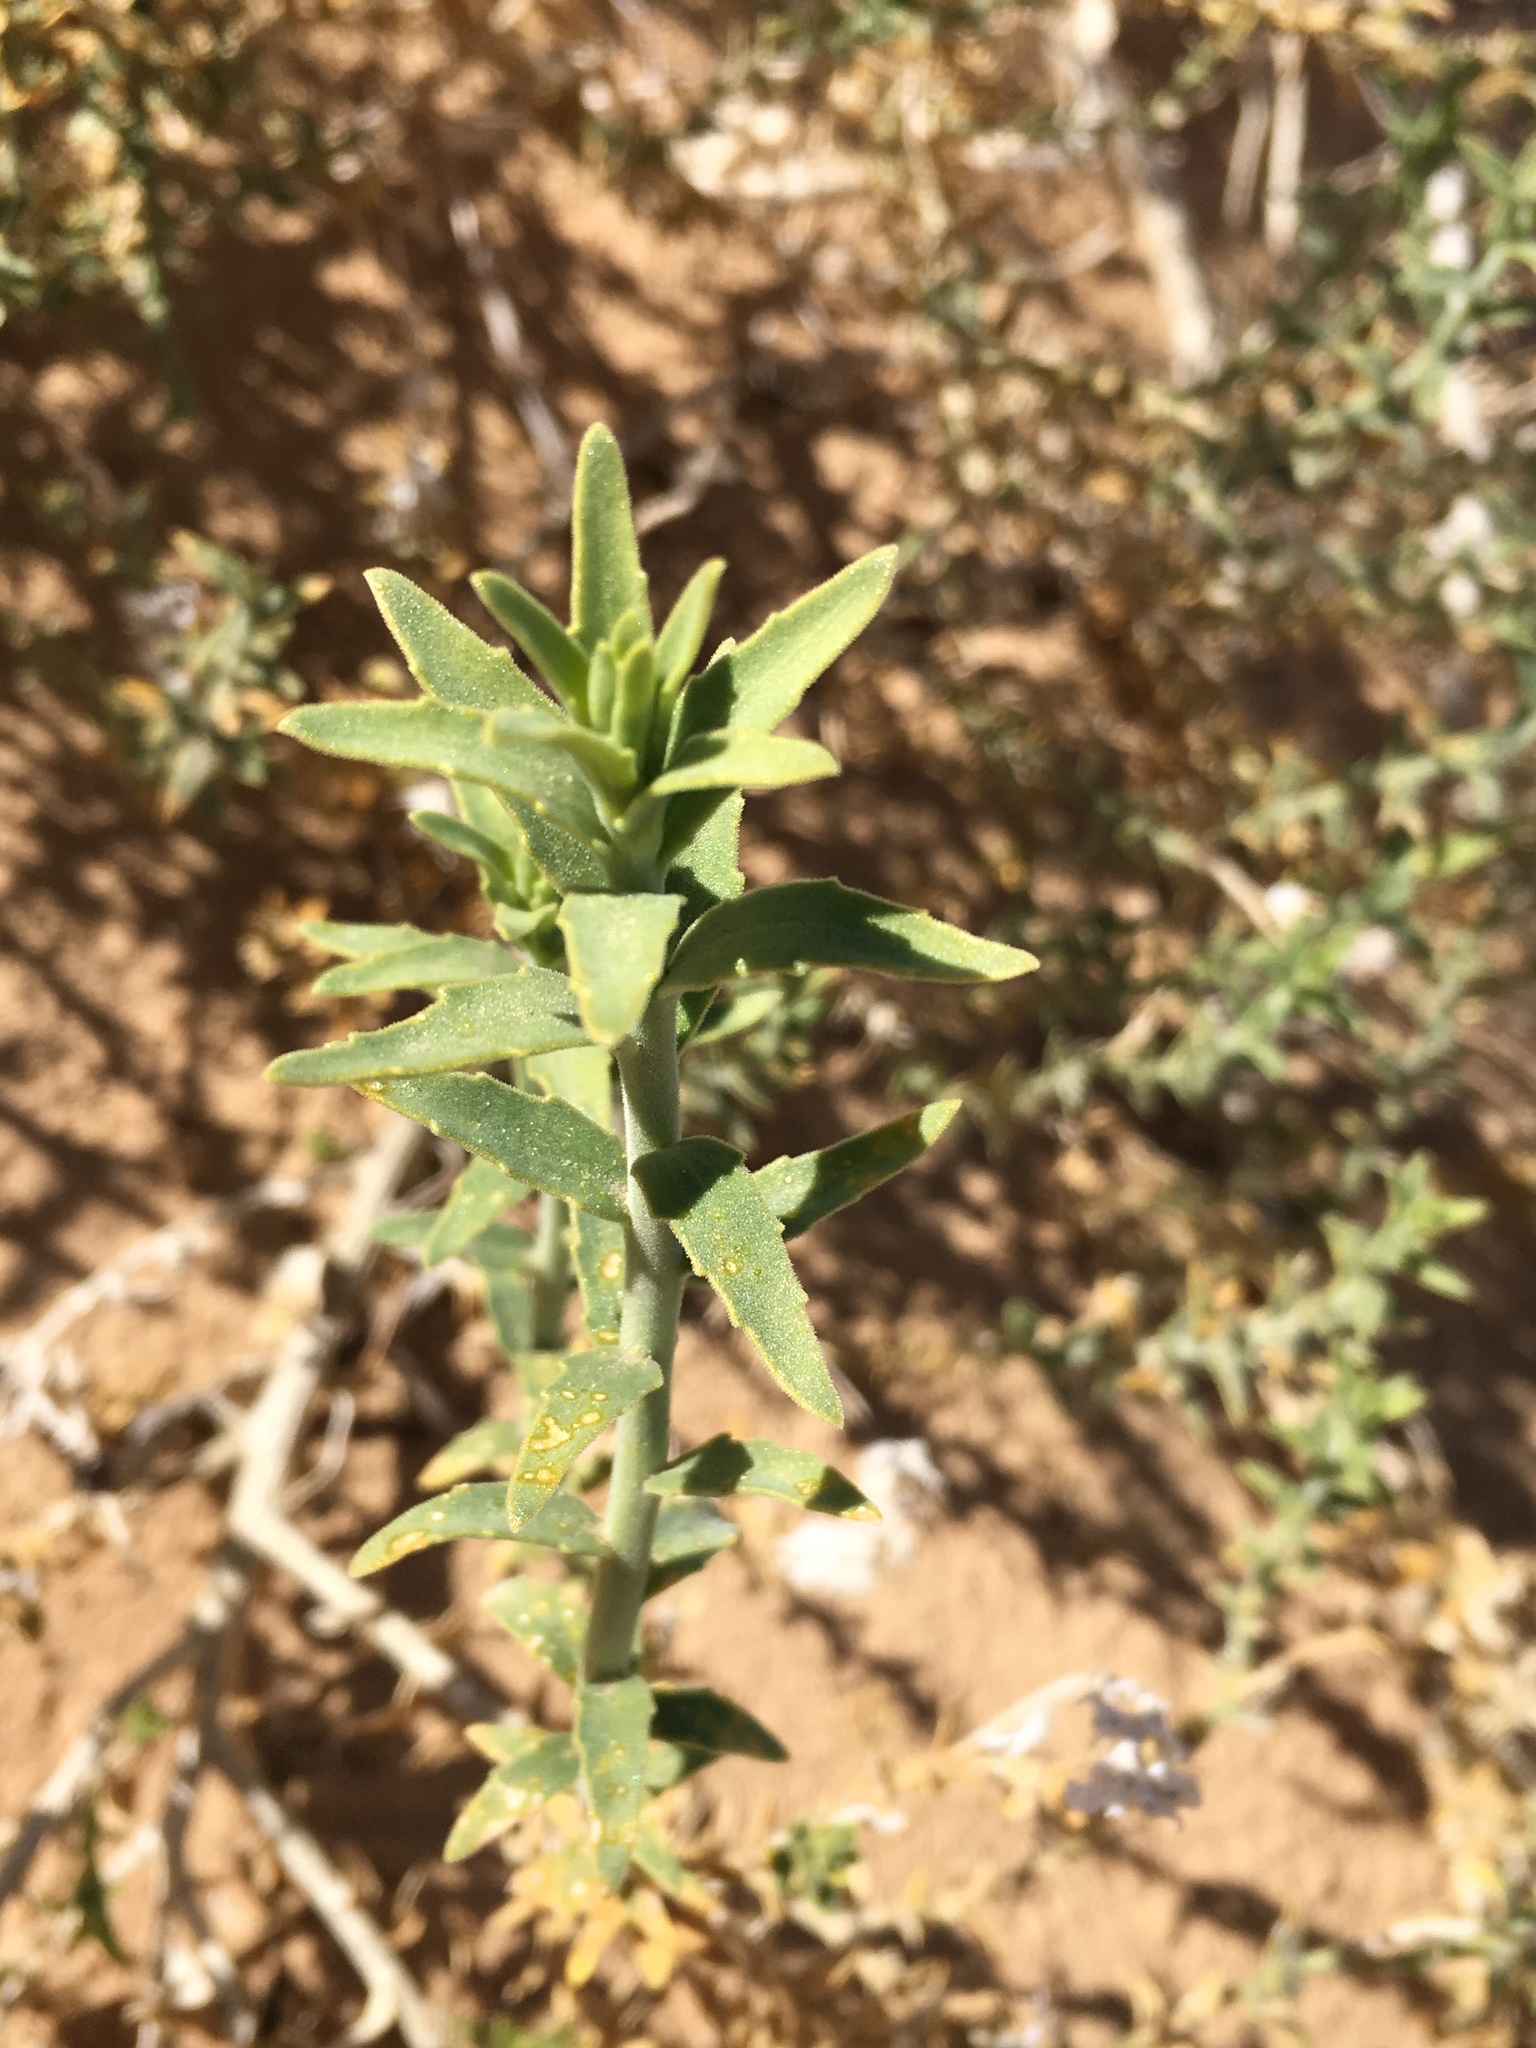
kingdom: Plantae
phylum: Tracheophyta
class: Magnoliopsida
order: Cornales
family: Loasaceae
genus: Petalonyx
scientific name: Petalonyx thurberi
